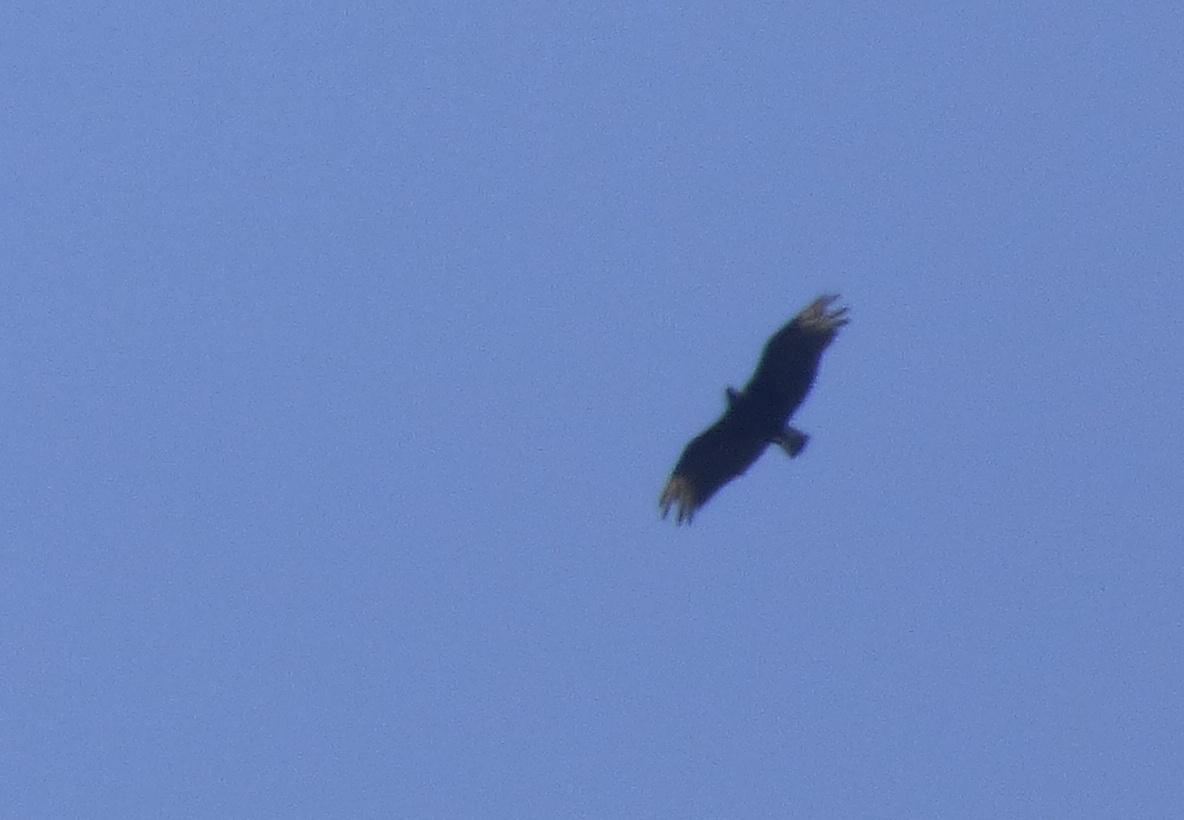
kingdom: Animalia
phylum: Chordata
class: Aves
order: Accipitriformes
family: Cathartidae
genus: Coragyps
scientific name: Coragyps atratus
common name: Black vulture
